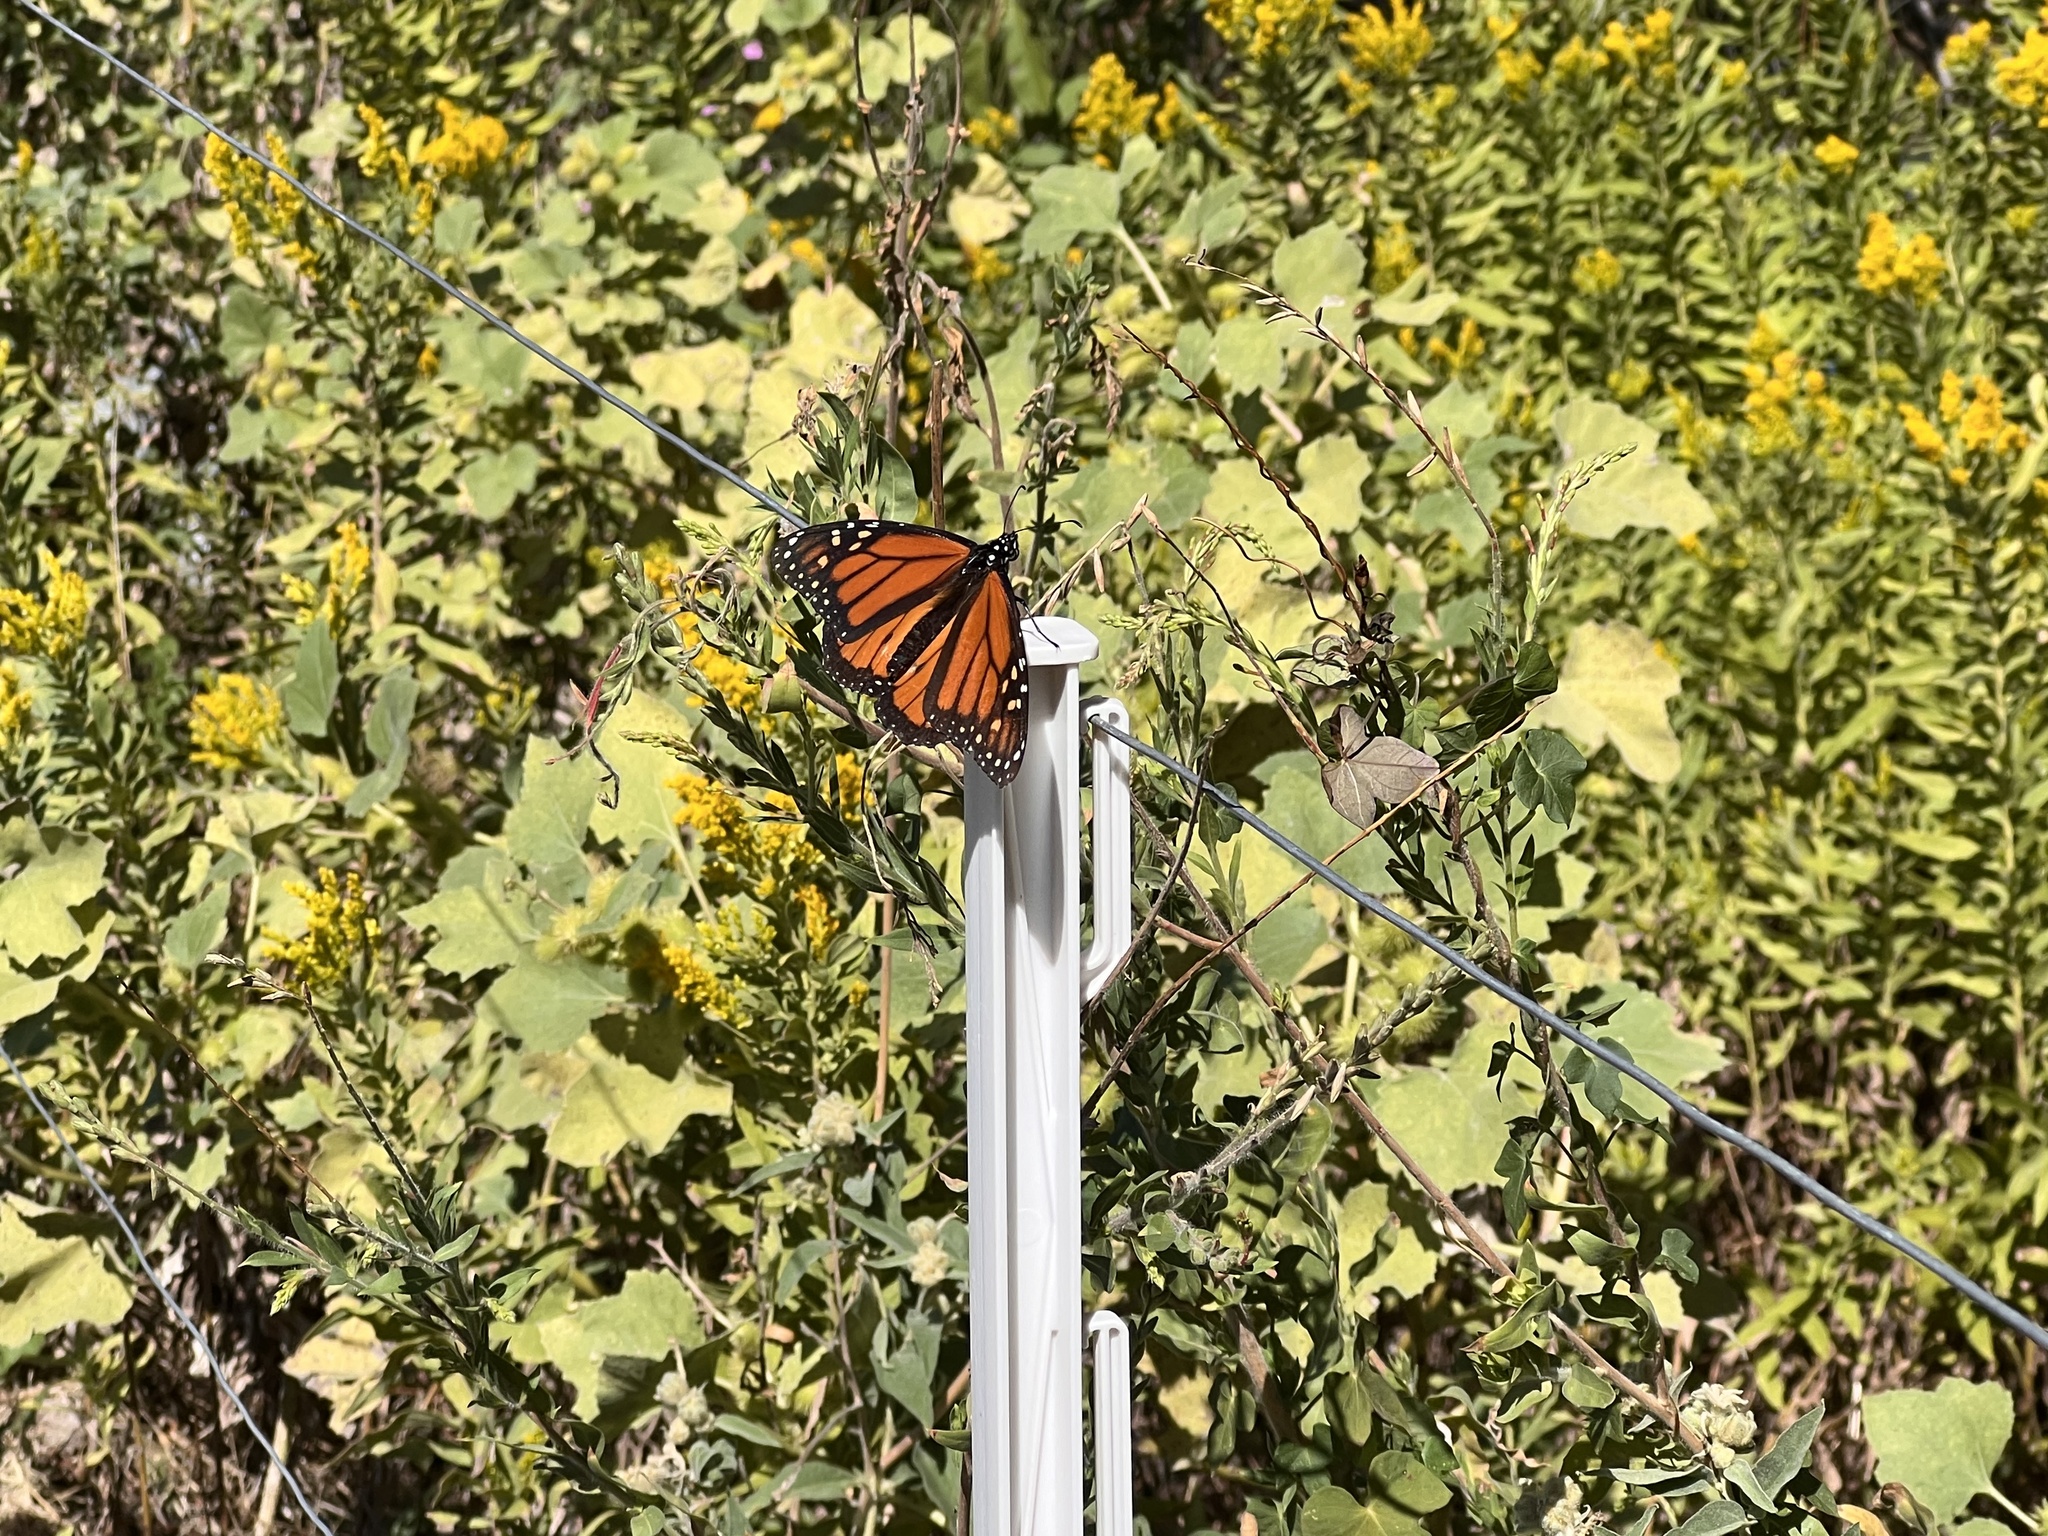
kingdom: Animalia
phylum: Arthropoda
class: Insecta
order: Lepidoptera
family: Nymphalidae
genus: Danaus
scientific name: Danaus plexippus
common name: Monarch
